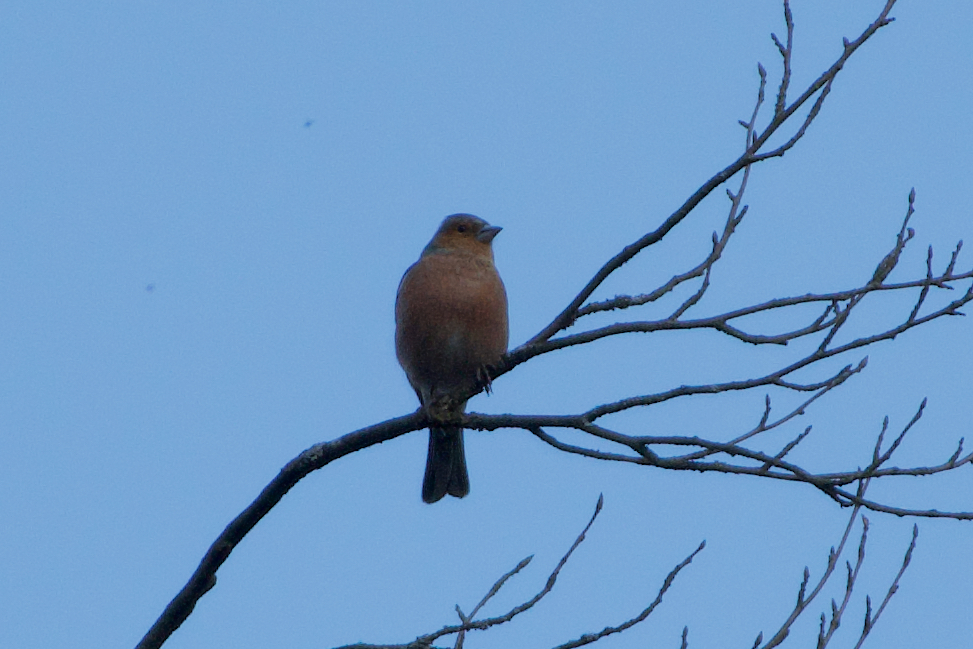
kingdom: Animalia
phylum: Chordata
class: Aves
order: Passeriformes
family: Fringillidae
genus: Fringilla
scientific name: Fringilla coelebs
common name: Common chaffinch
